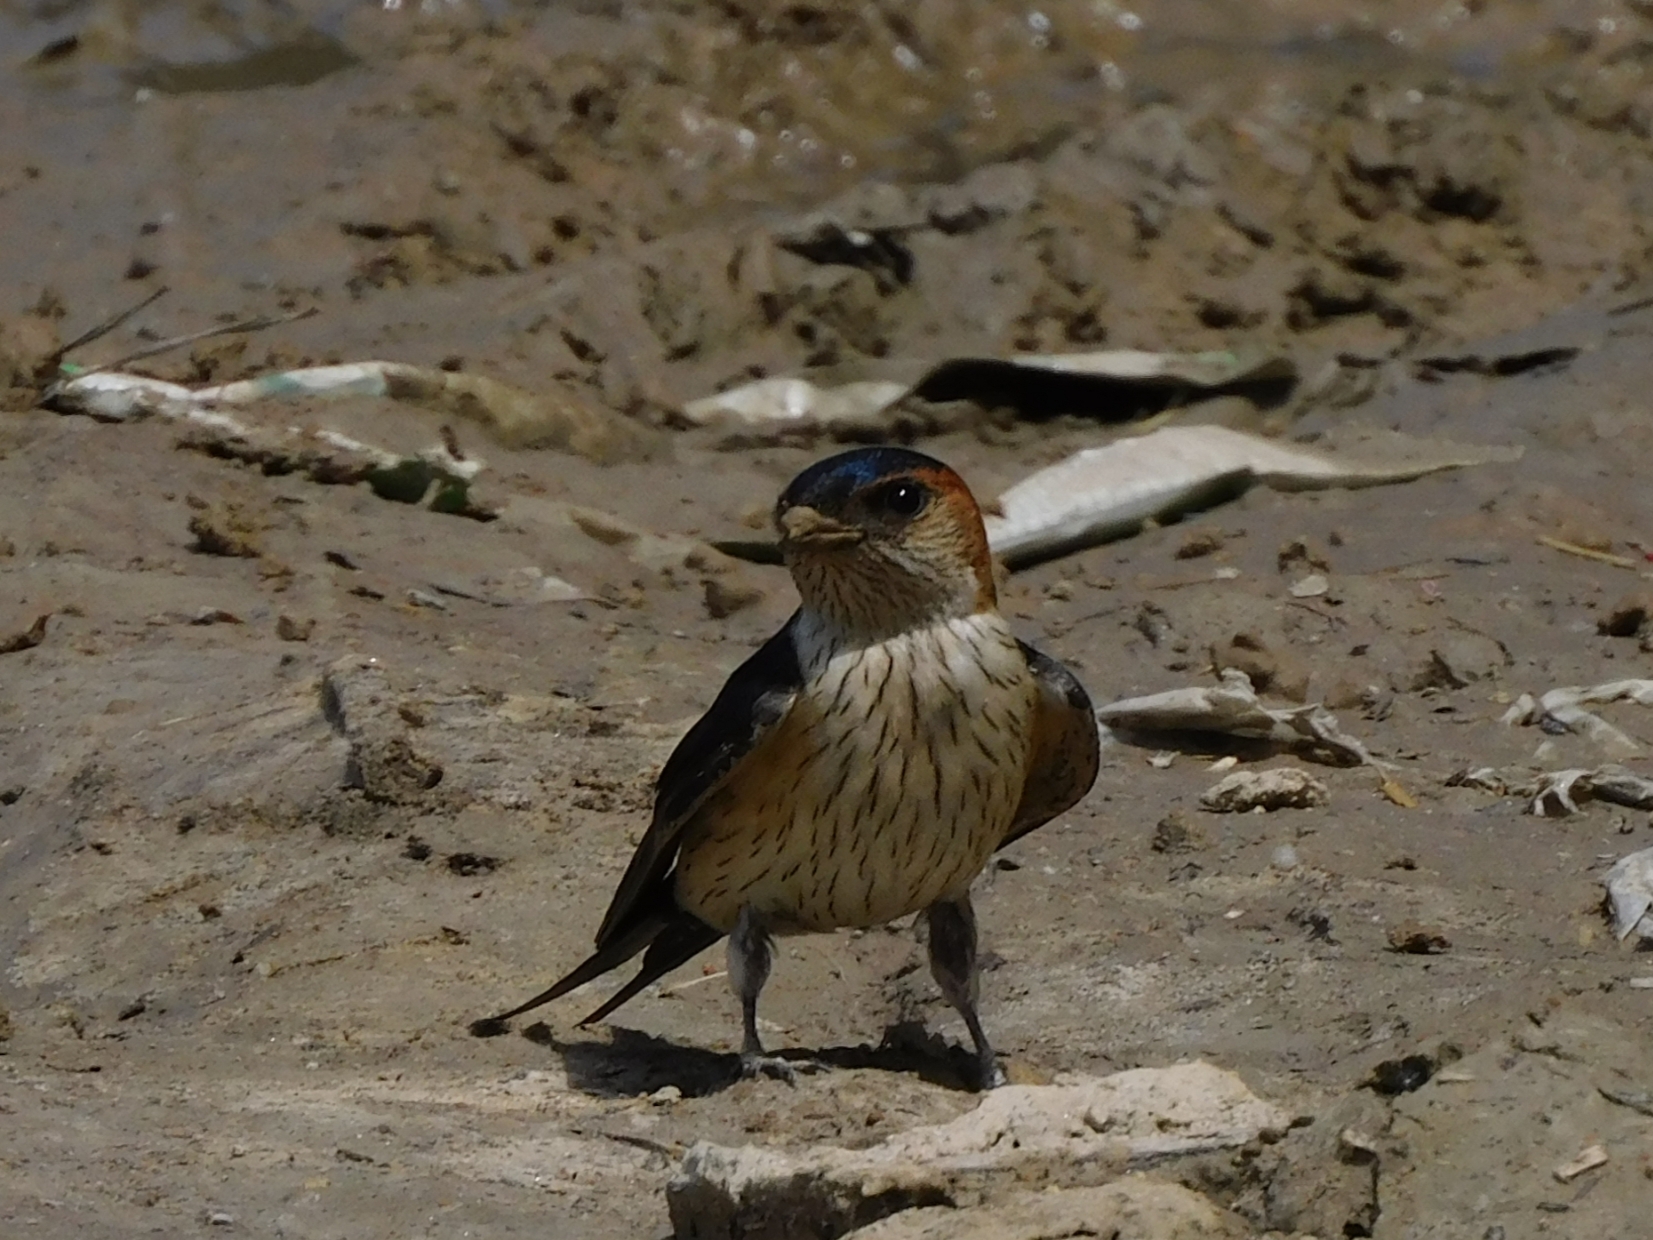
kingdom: Animalia
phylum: Chordata
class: Aves
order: Passeriformes
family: Hirundinidae
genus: Cecropis
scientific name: Cecropis daurica
